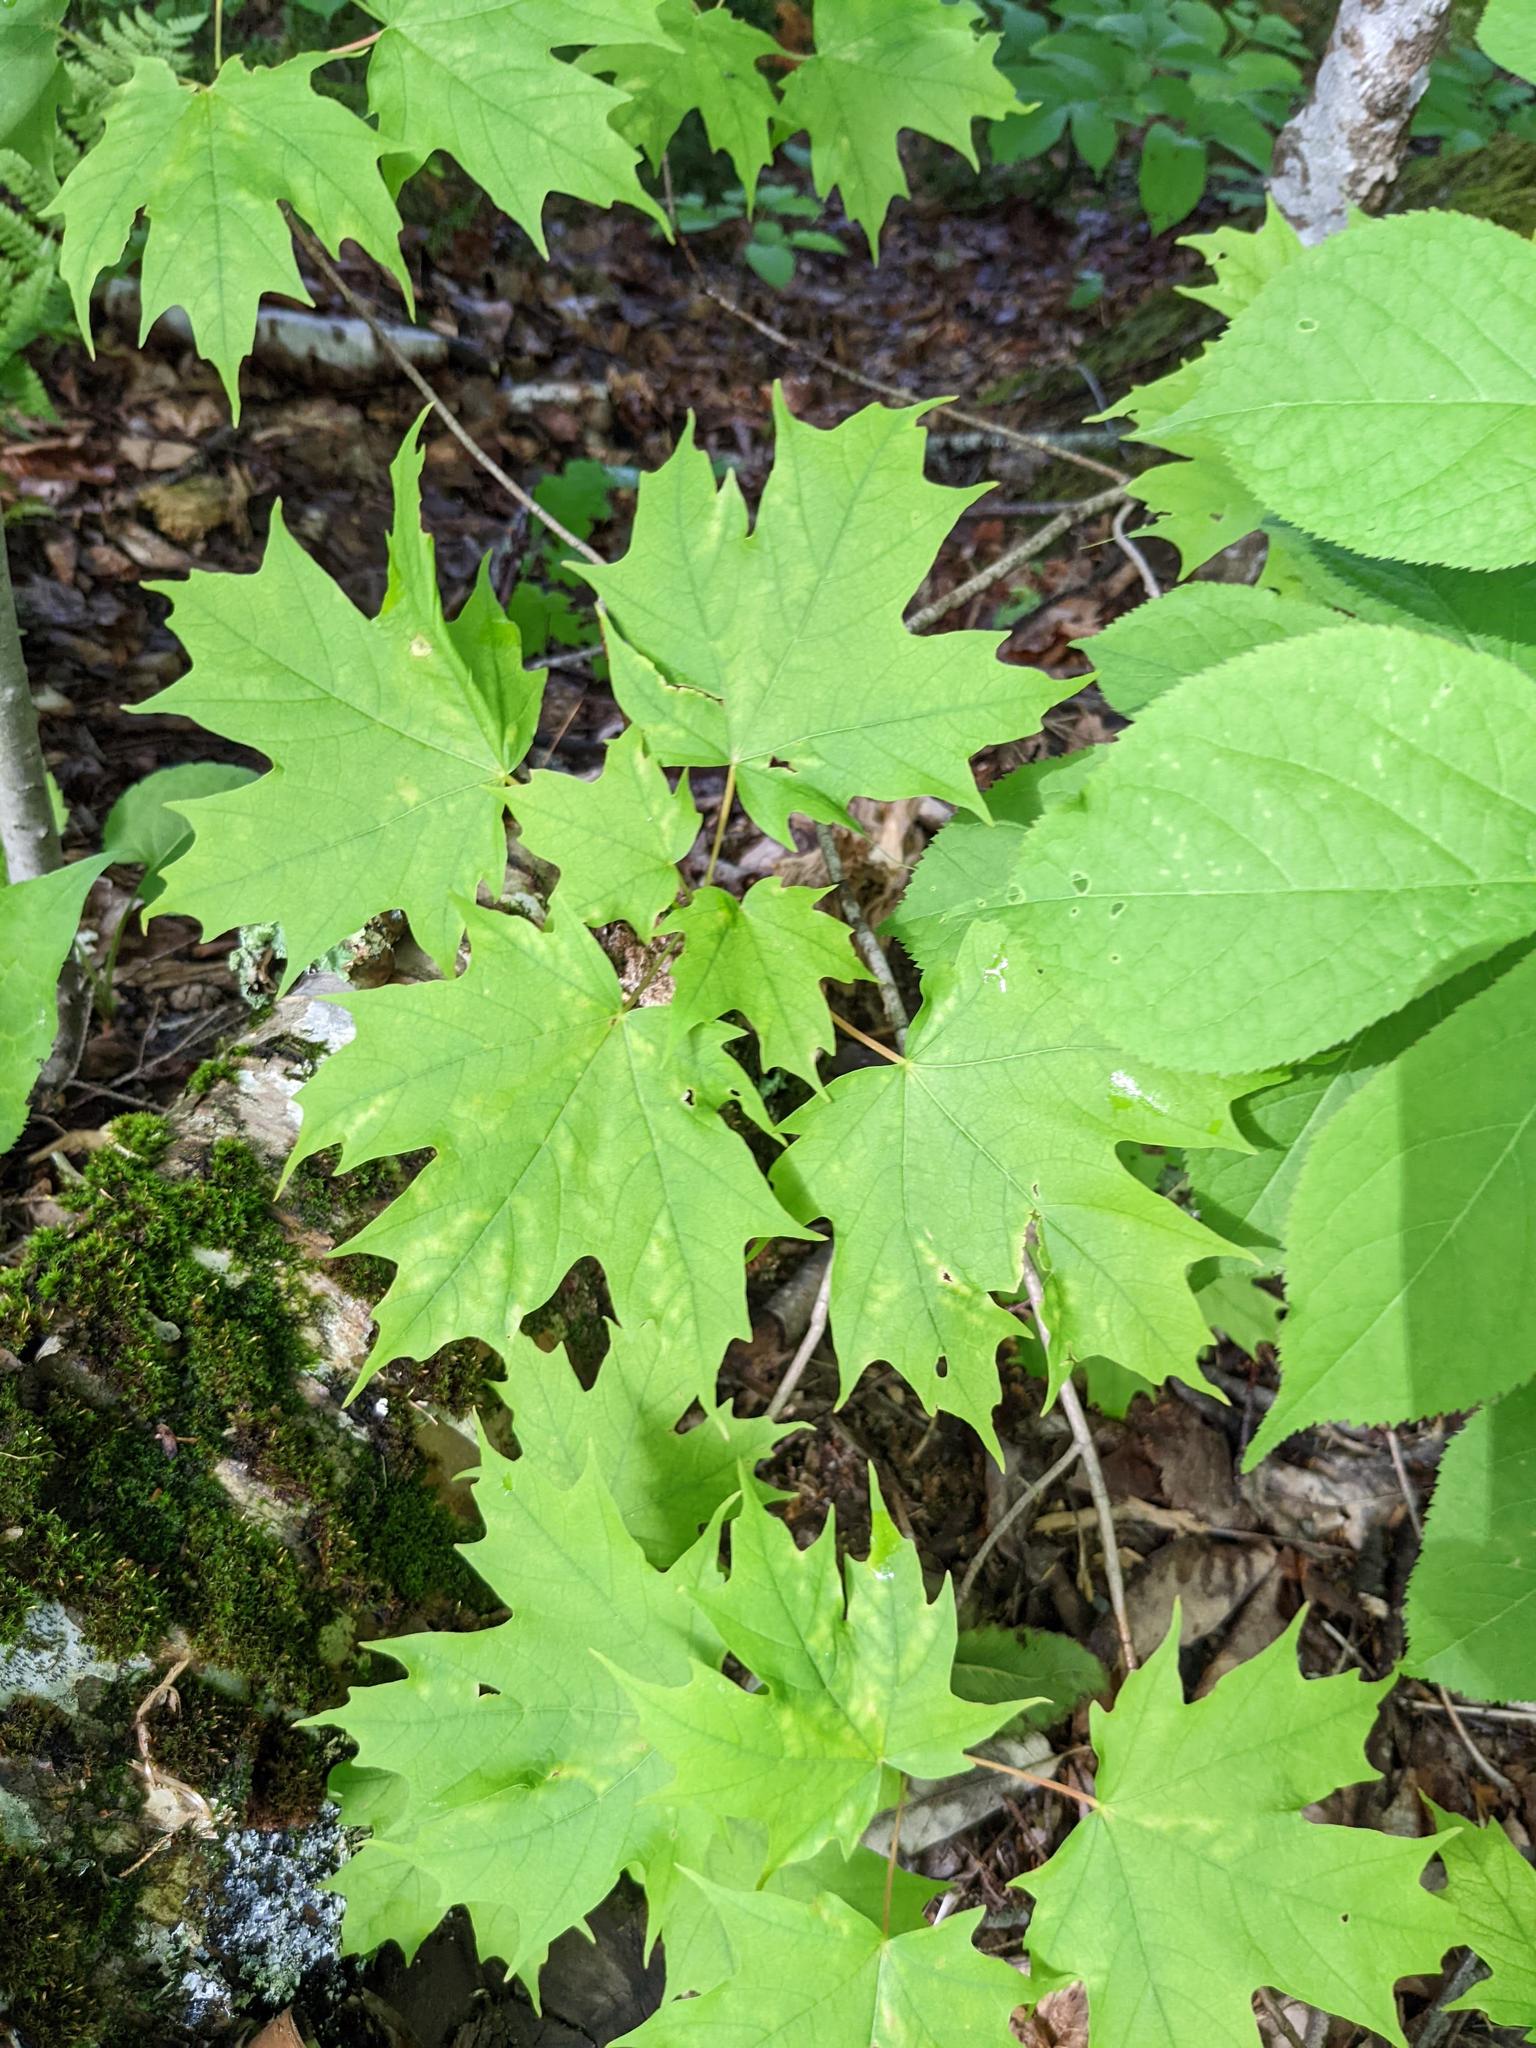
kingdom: Plantae
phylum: Tracheophyta
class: Magnoliopsida
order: Sapindales
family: Sapindaceae
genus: Acer
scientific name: Acer saccharum
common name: Sugar maple
